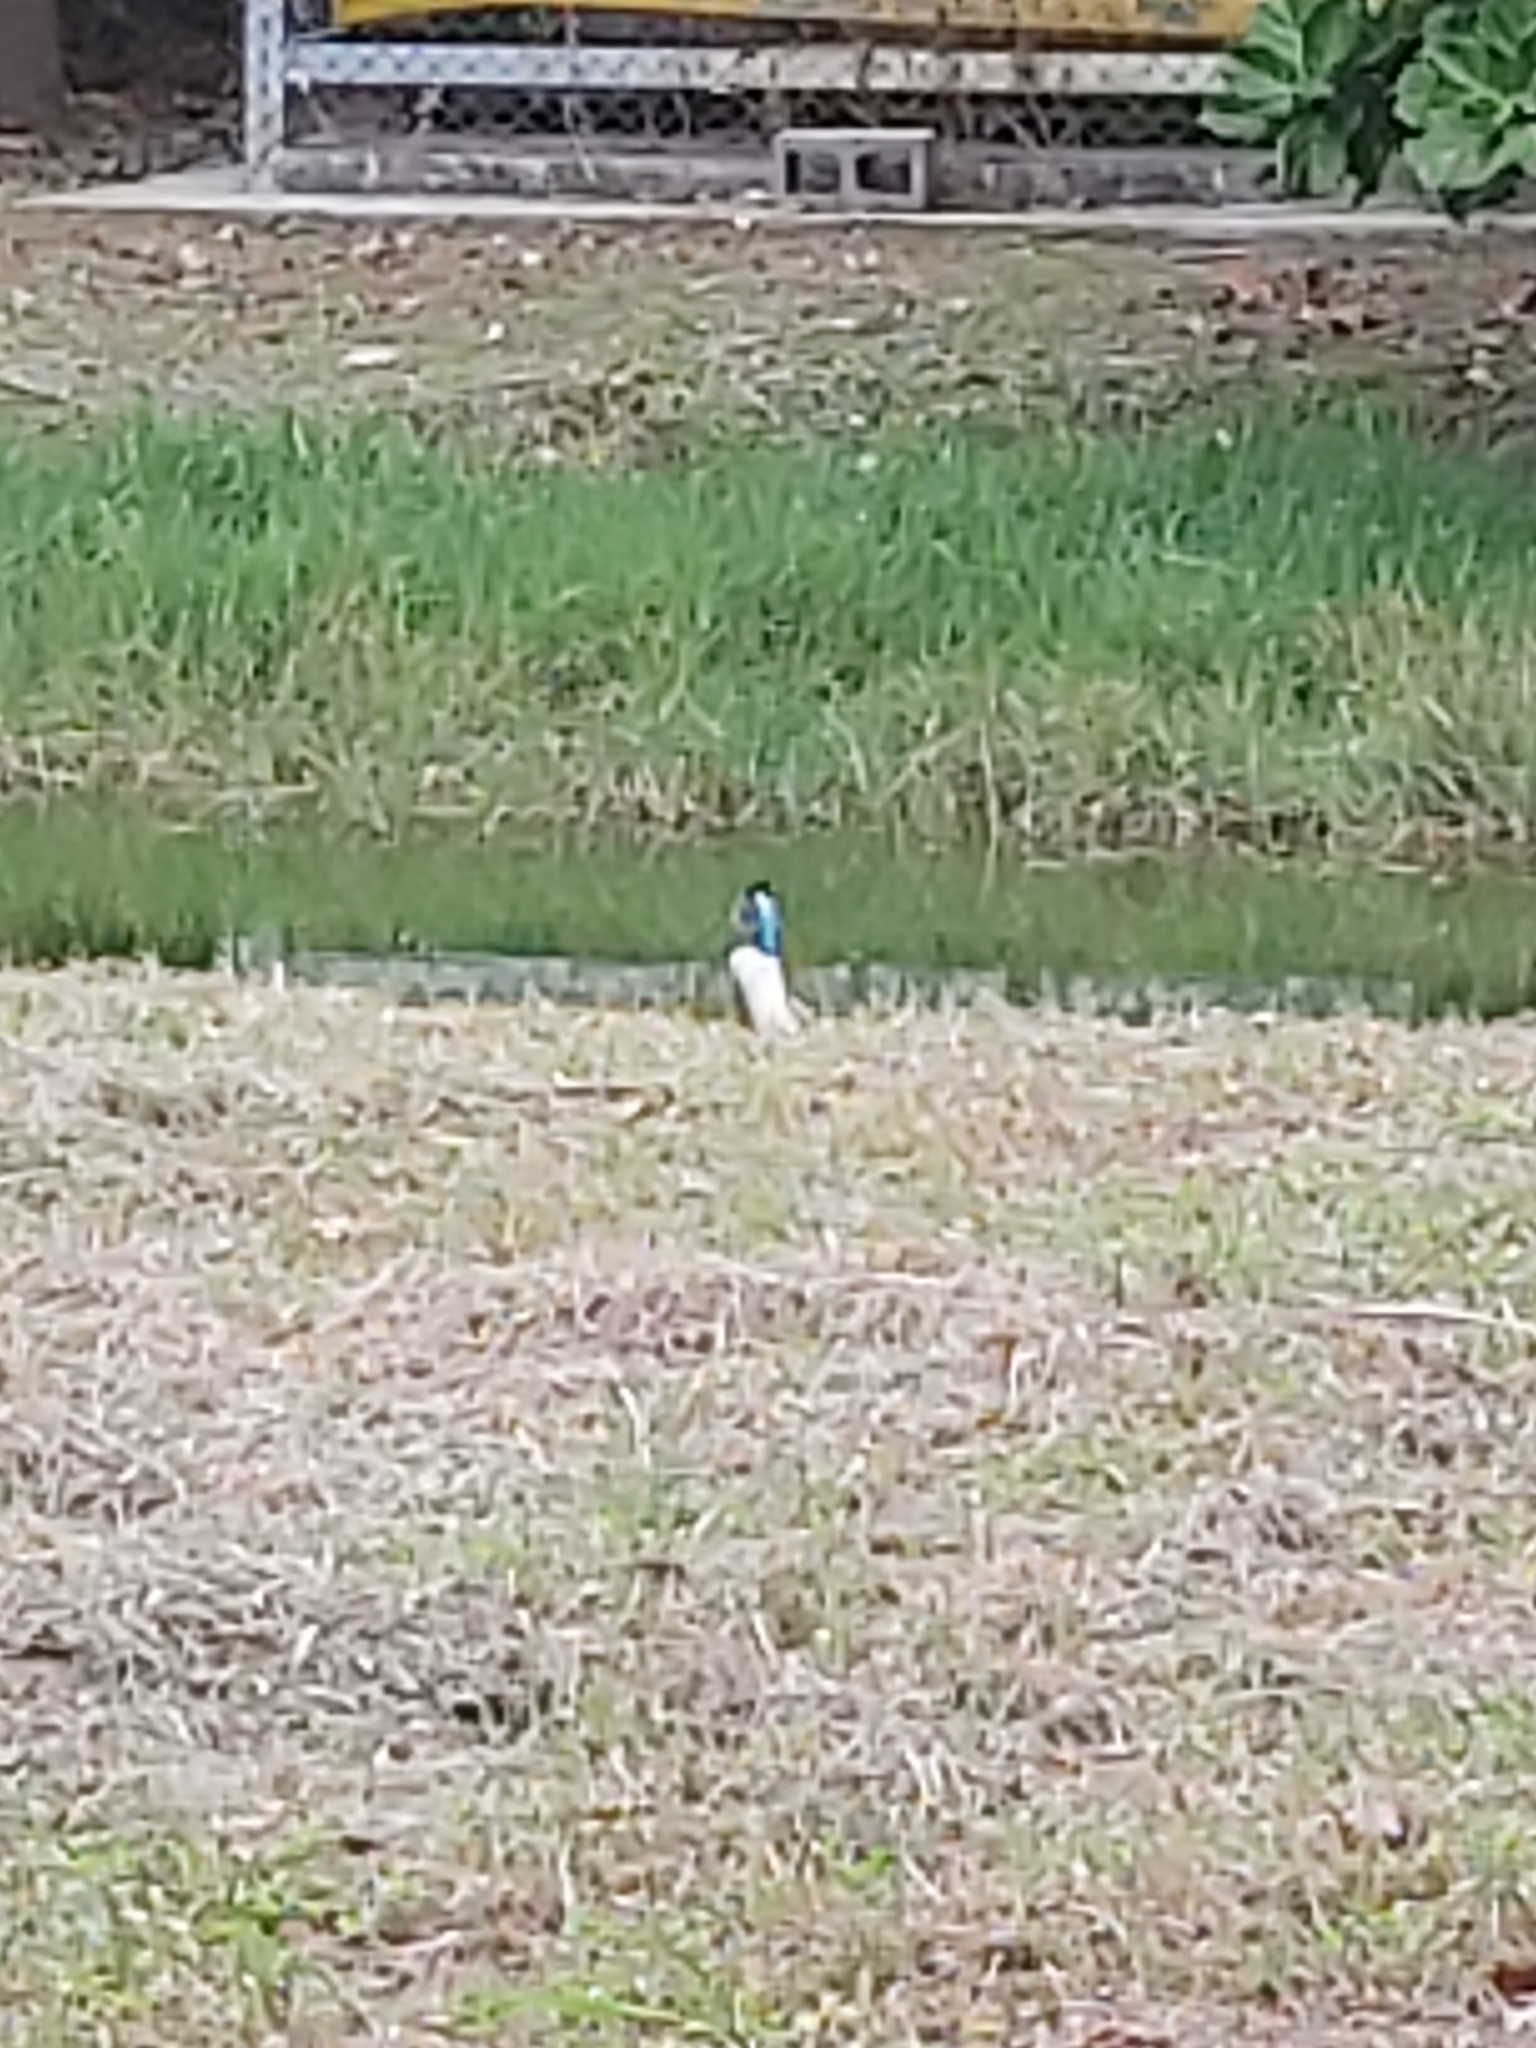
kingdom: Animalia
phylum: Chordata
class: Aves
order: Coraciiformes
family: Alcedinidae
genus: Alcedo
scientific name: Alcedo atthis
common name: Common kingfisher
